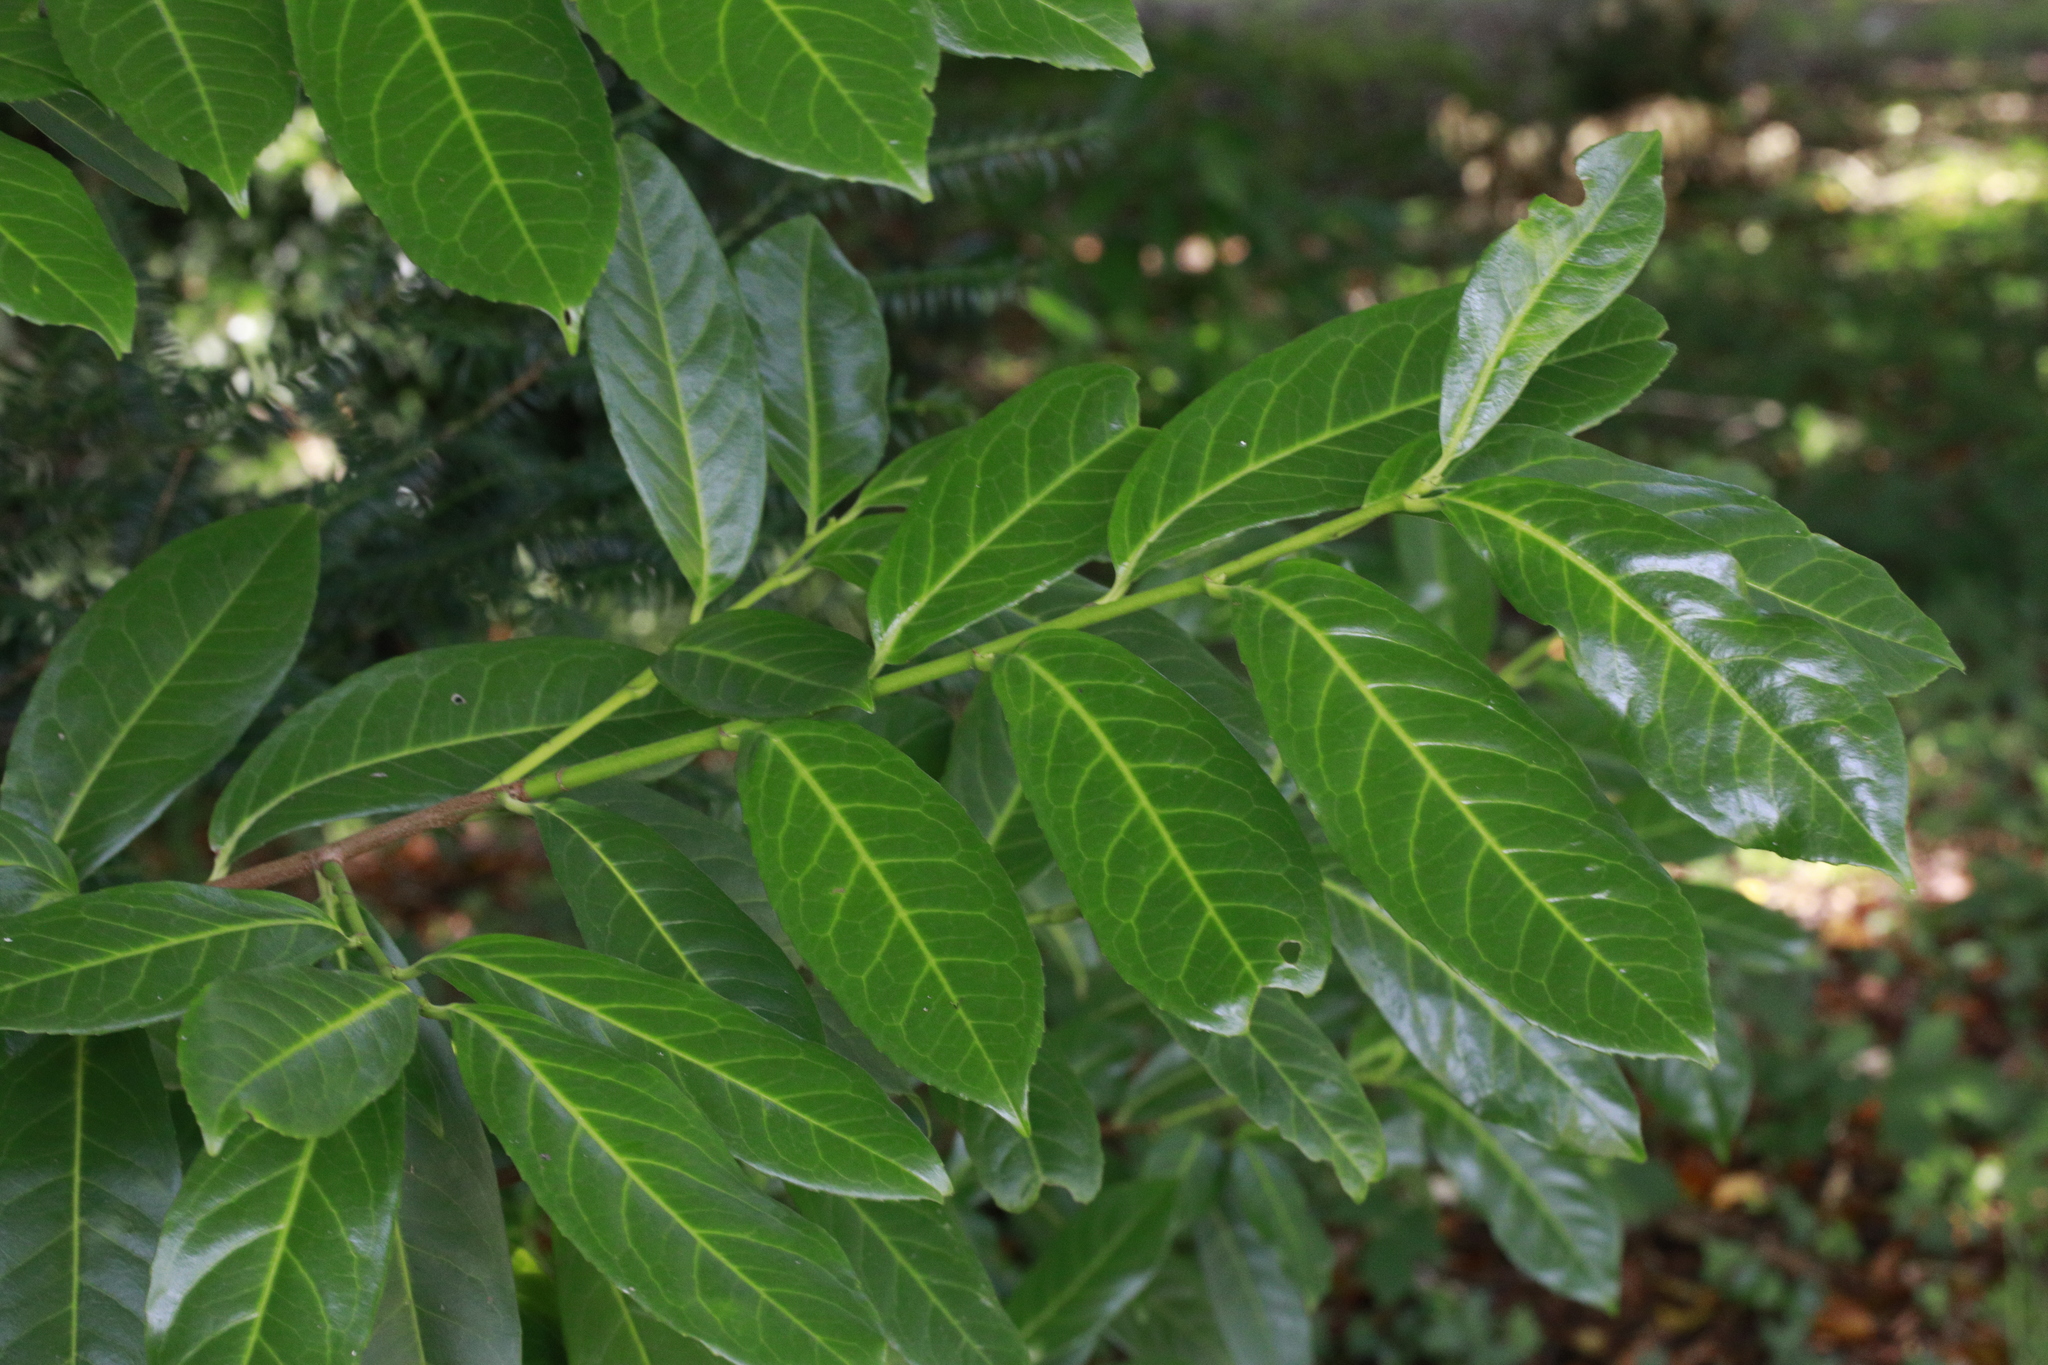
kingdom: Plantae
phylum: Tracheophyta
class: Magnoliopsida
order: Rosales
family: Rosaceae
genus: Prunus
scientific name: Prunus laurocerasus
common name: Cherry laurel
